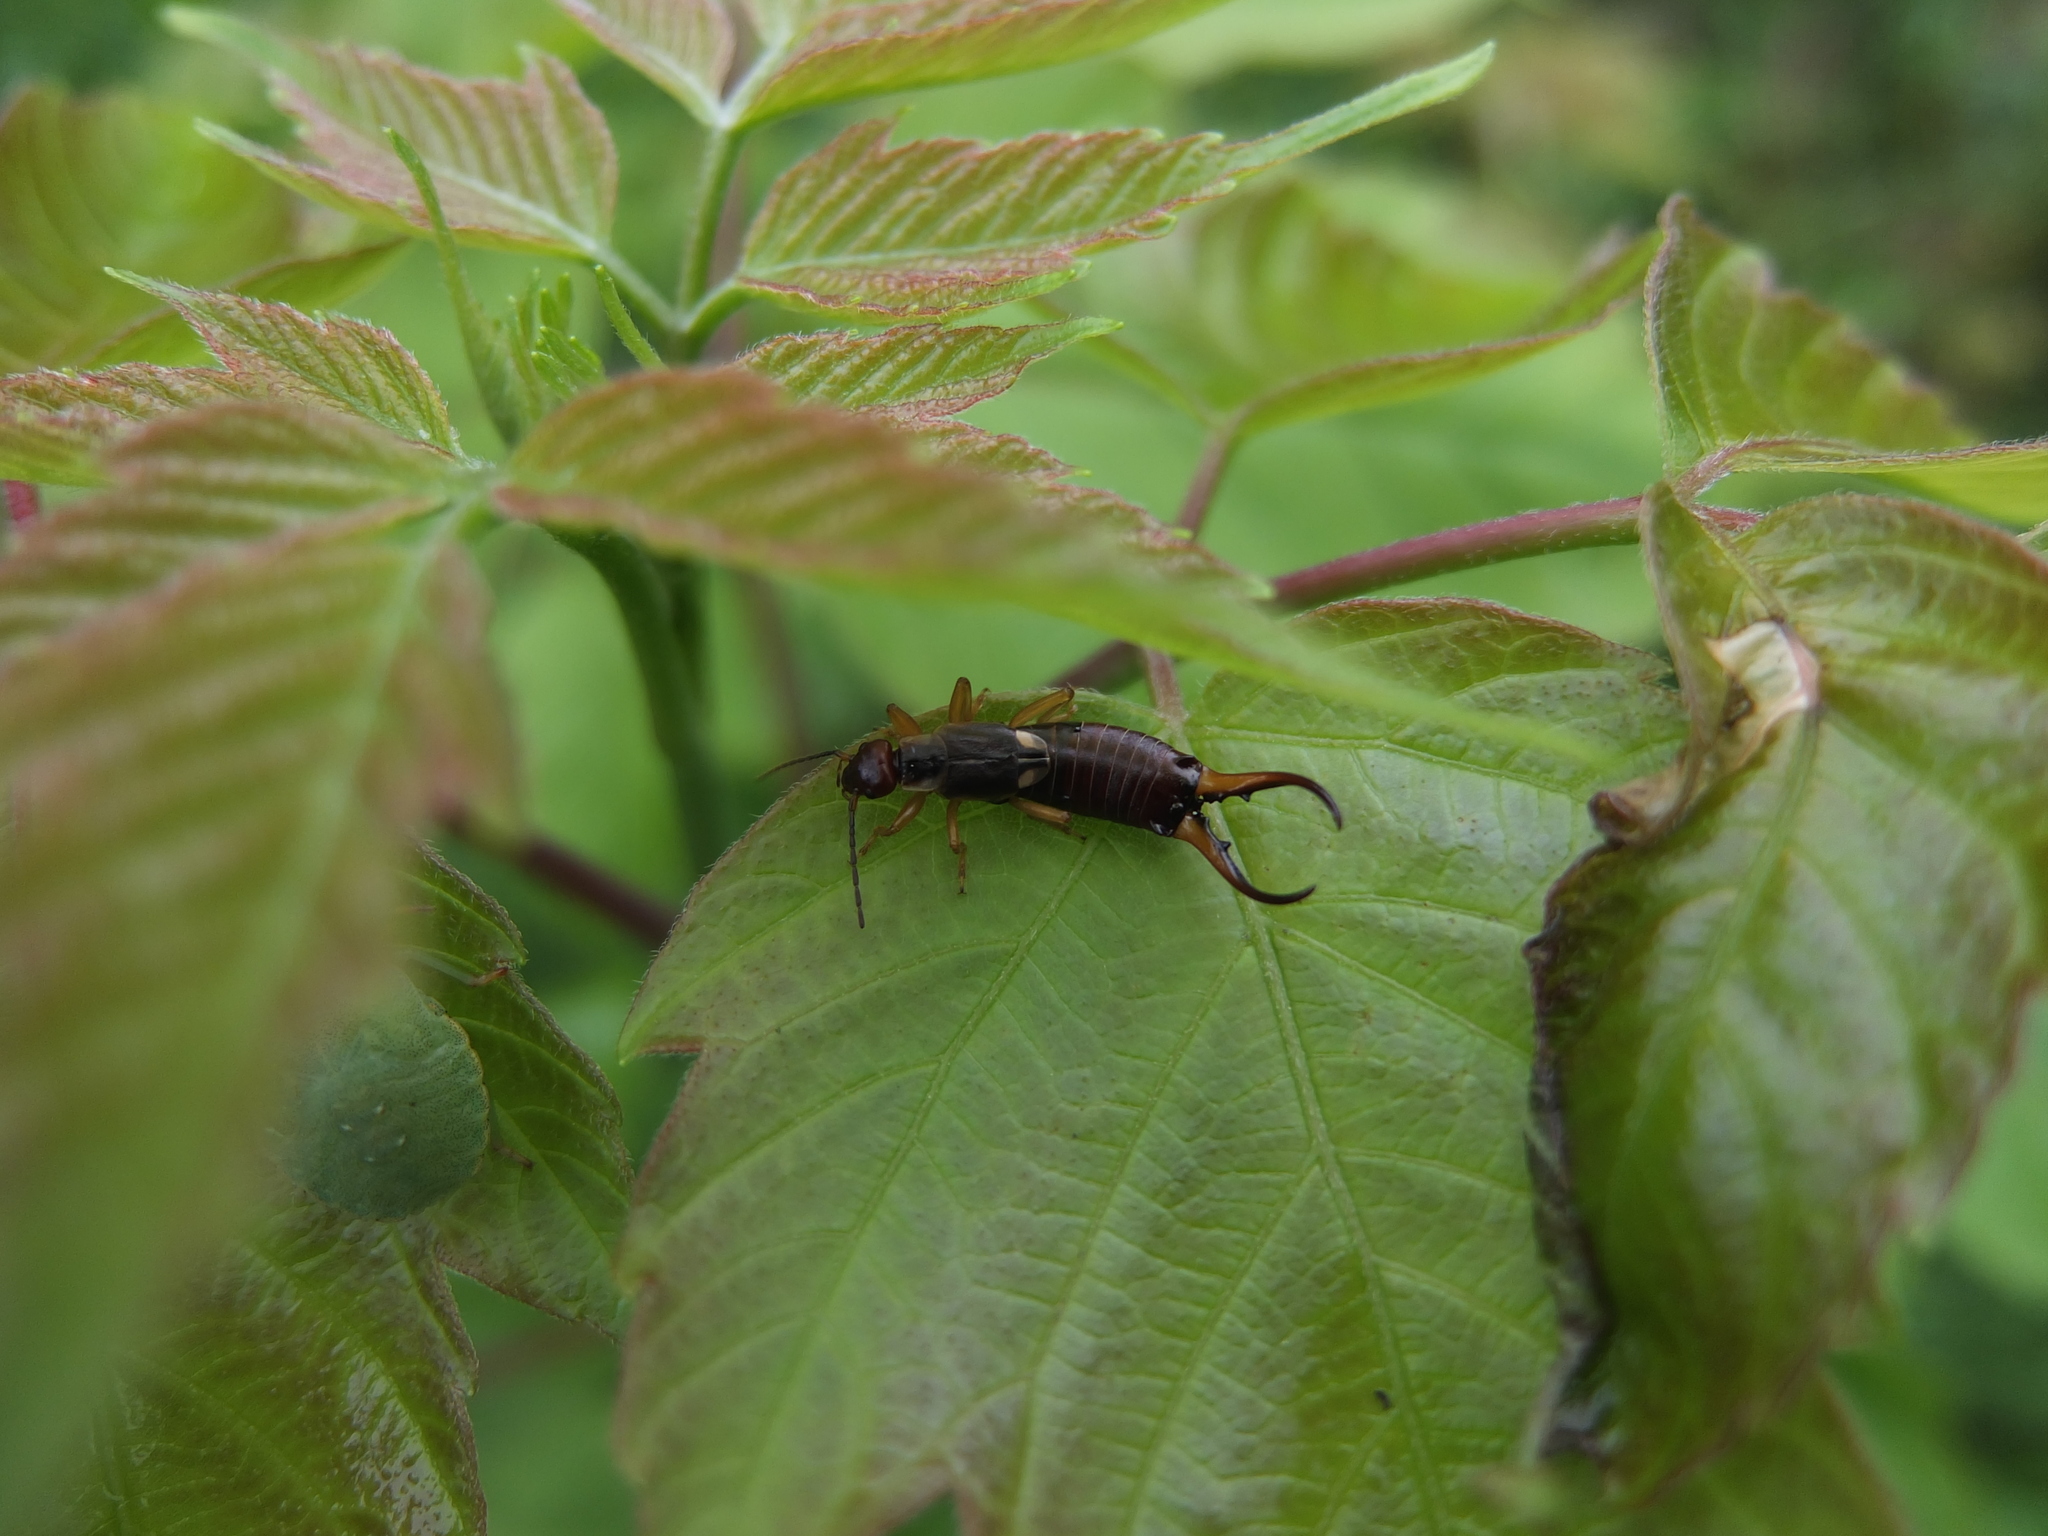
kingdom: Animalia
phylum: Arthropoda
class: Insecta
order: Dermaptera
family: Forficulidae
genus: Forficula
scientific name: Forficula
